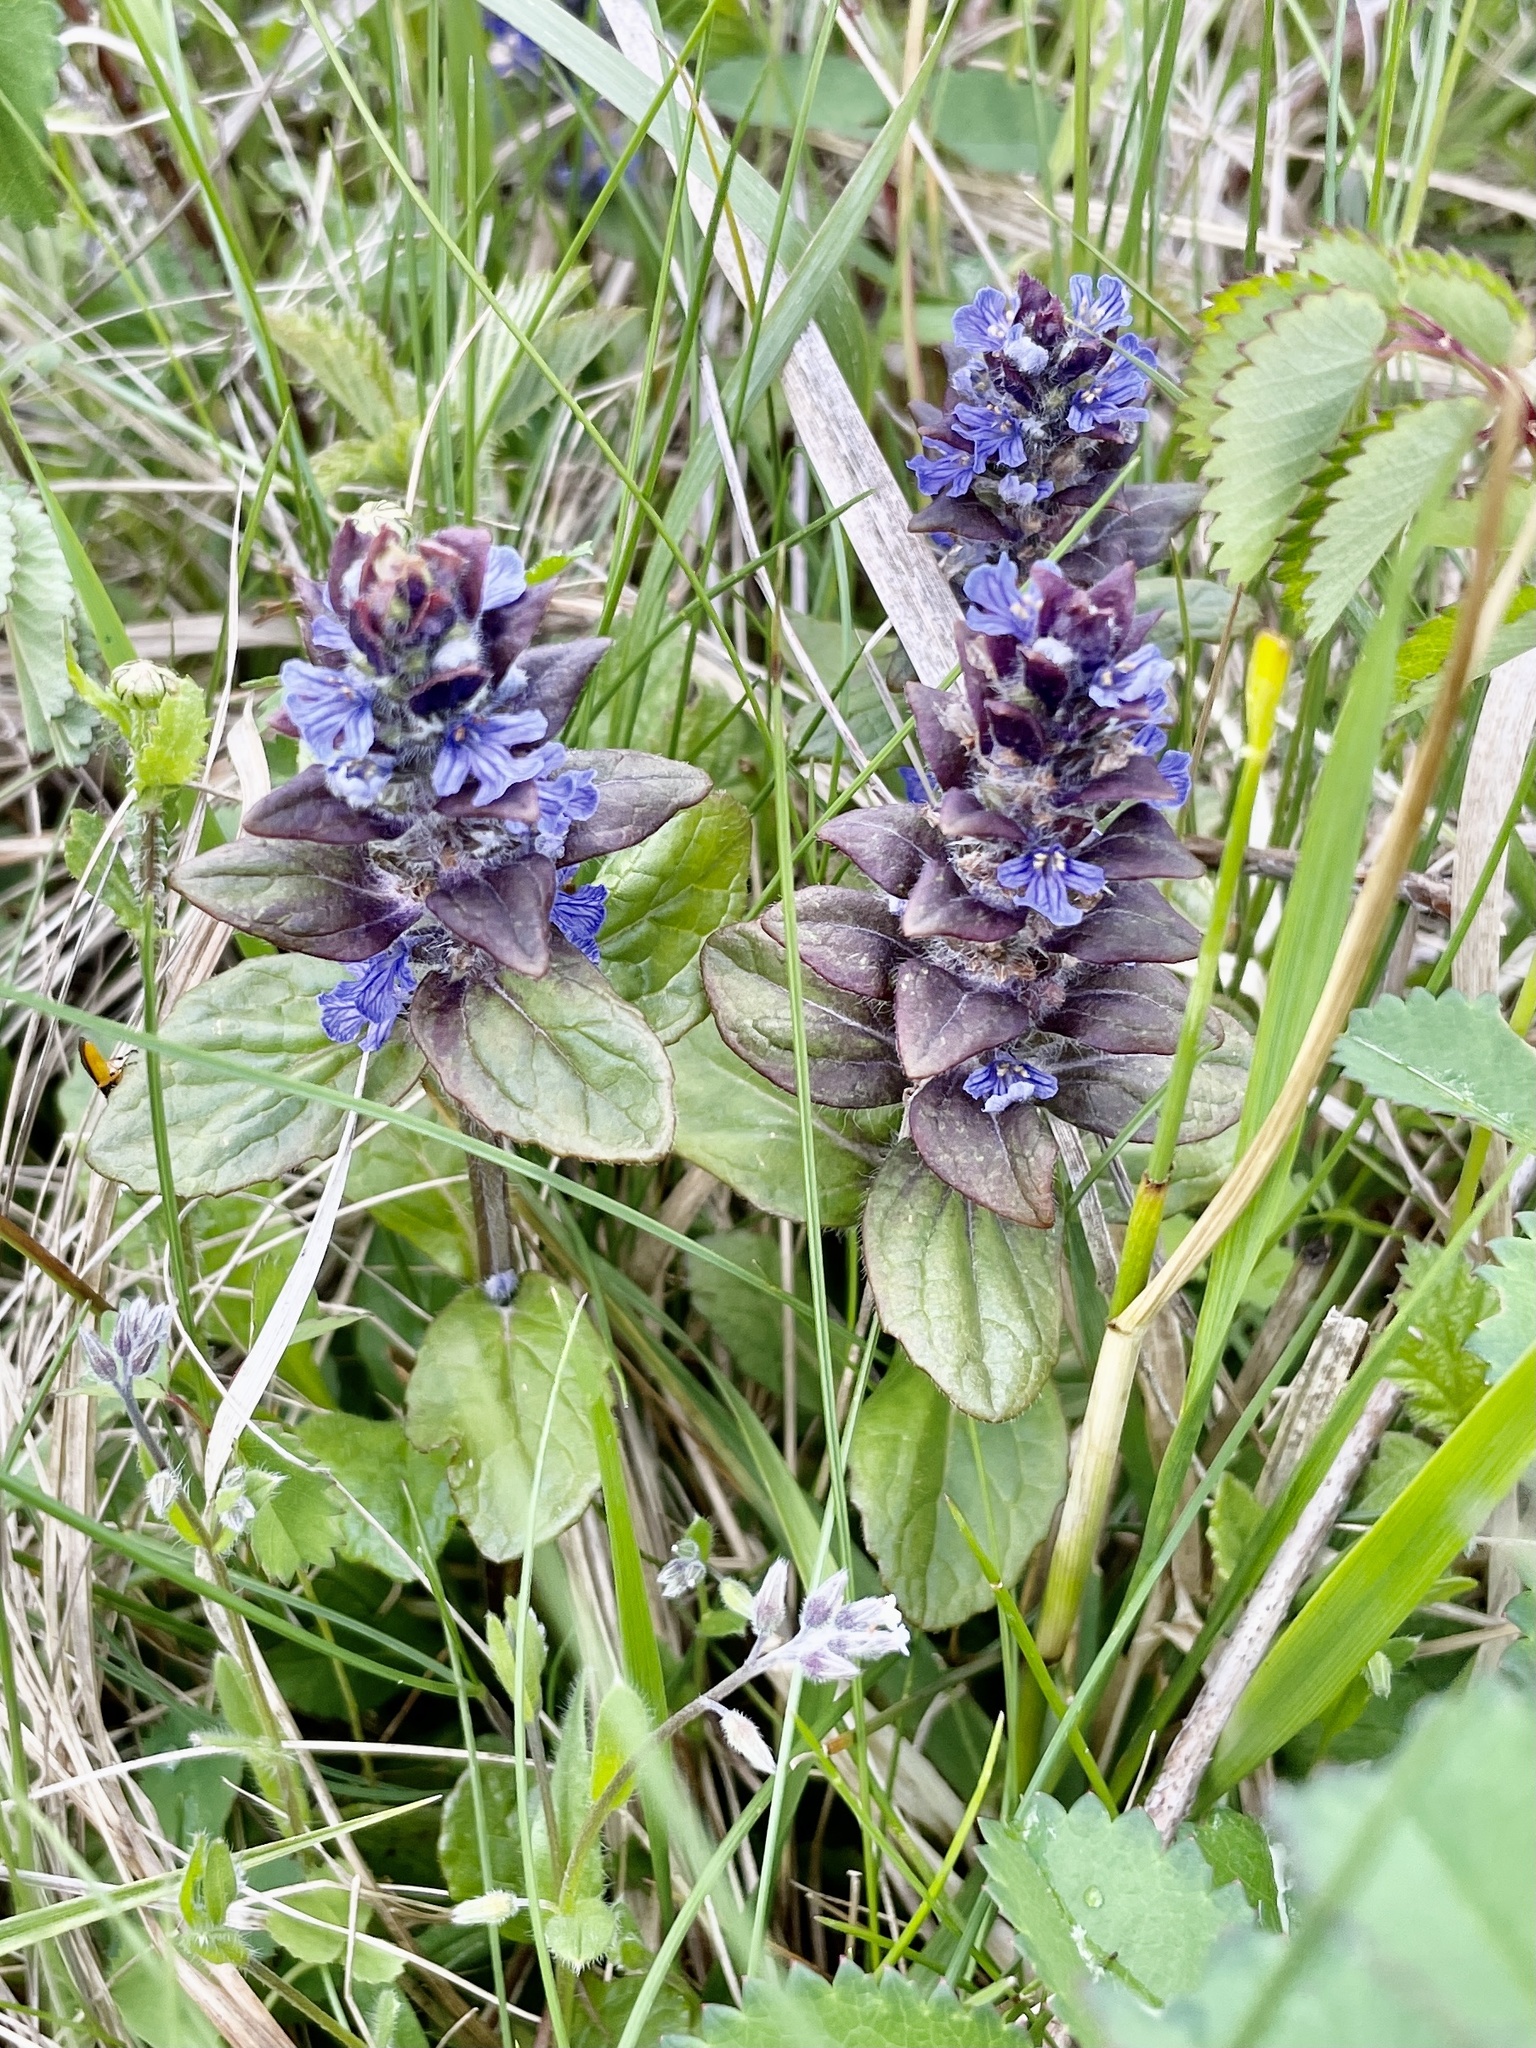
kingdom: Plantae
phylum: Tracheophyta
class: Magnoliopsida
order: Lamiales
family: Lamiaceae
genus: Ajuga
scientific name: Ajuga reptans
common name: Bugle
